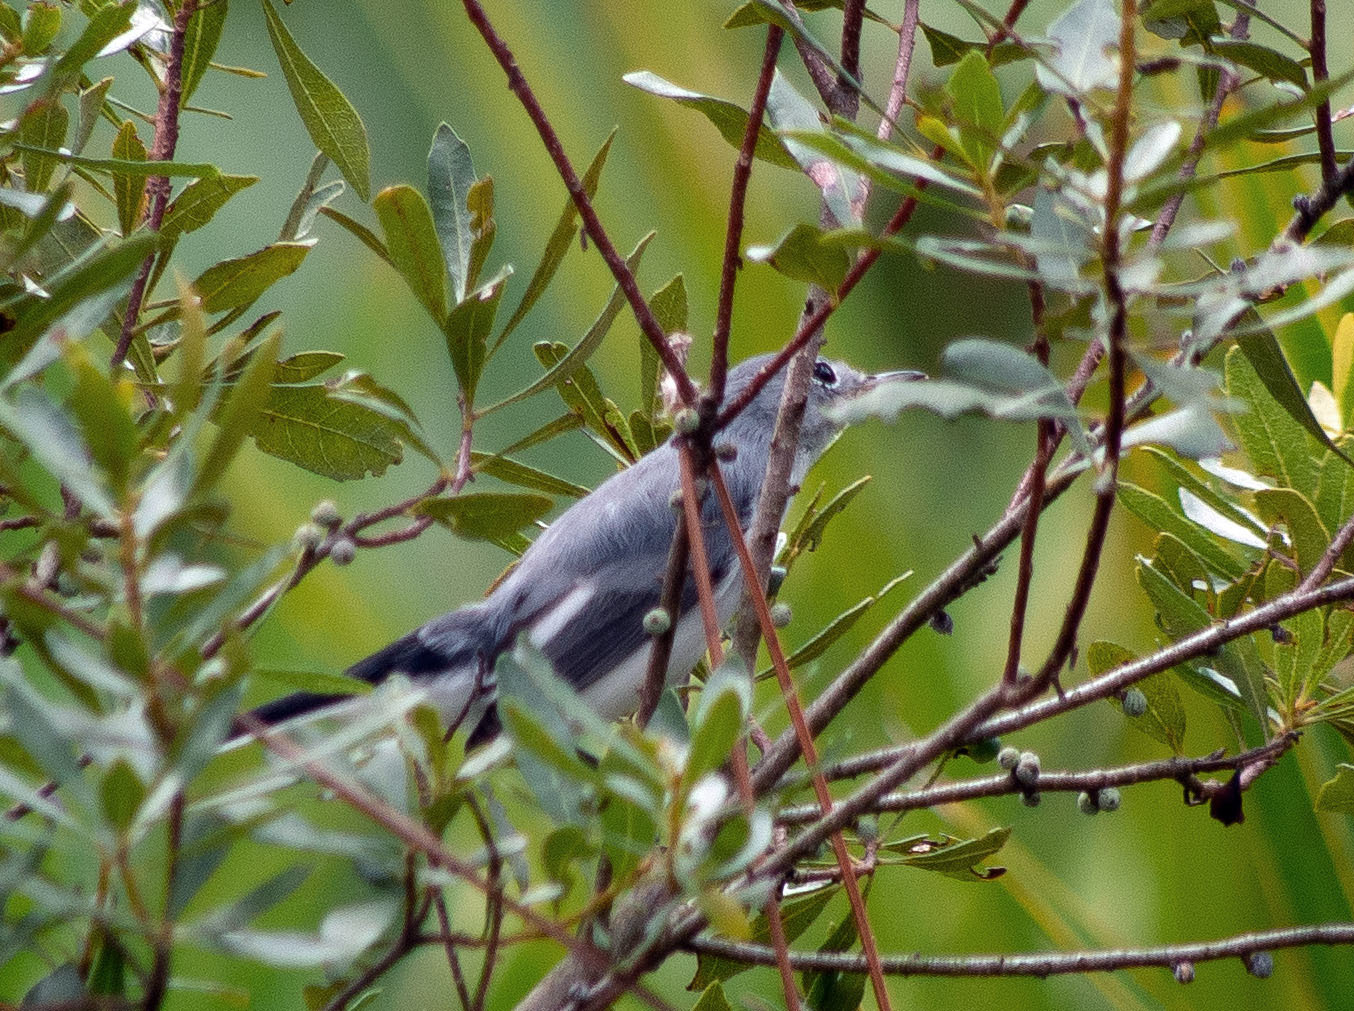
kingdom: Animalia
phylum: Chordata
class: Aves
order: Passeriformes
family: Polioptilidae
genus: Polioptila
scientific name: Polioptila caerulea
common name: Blue-gray gnatcatcher
